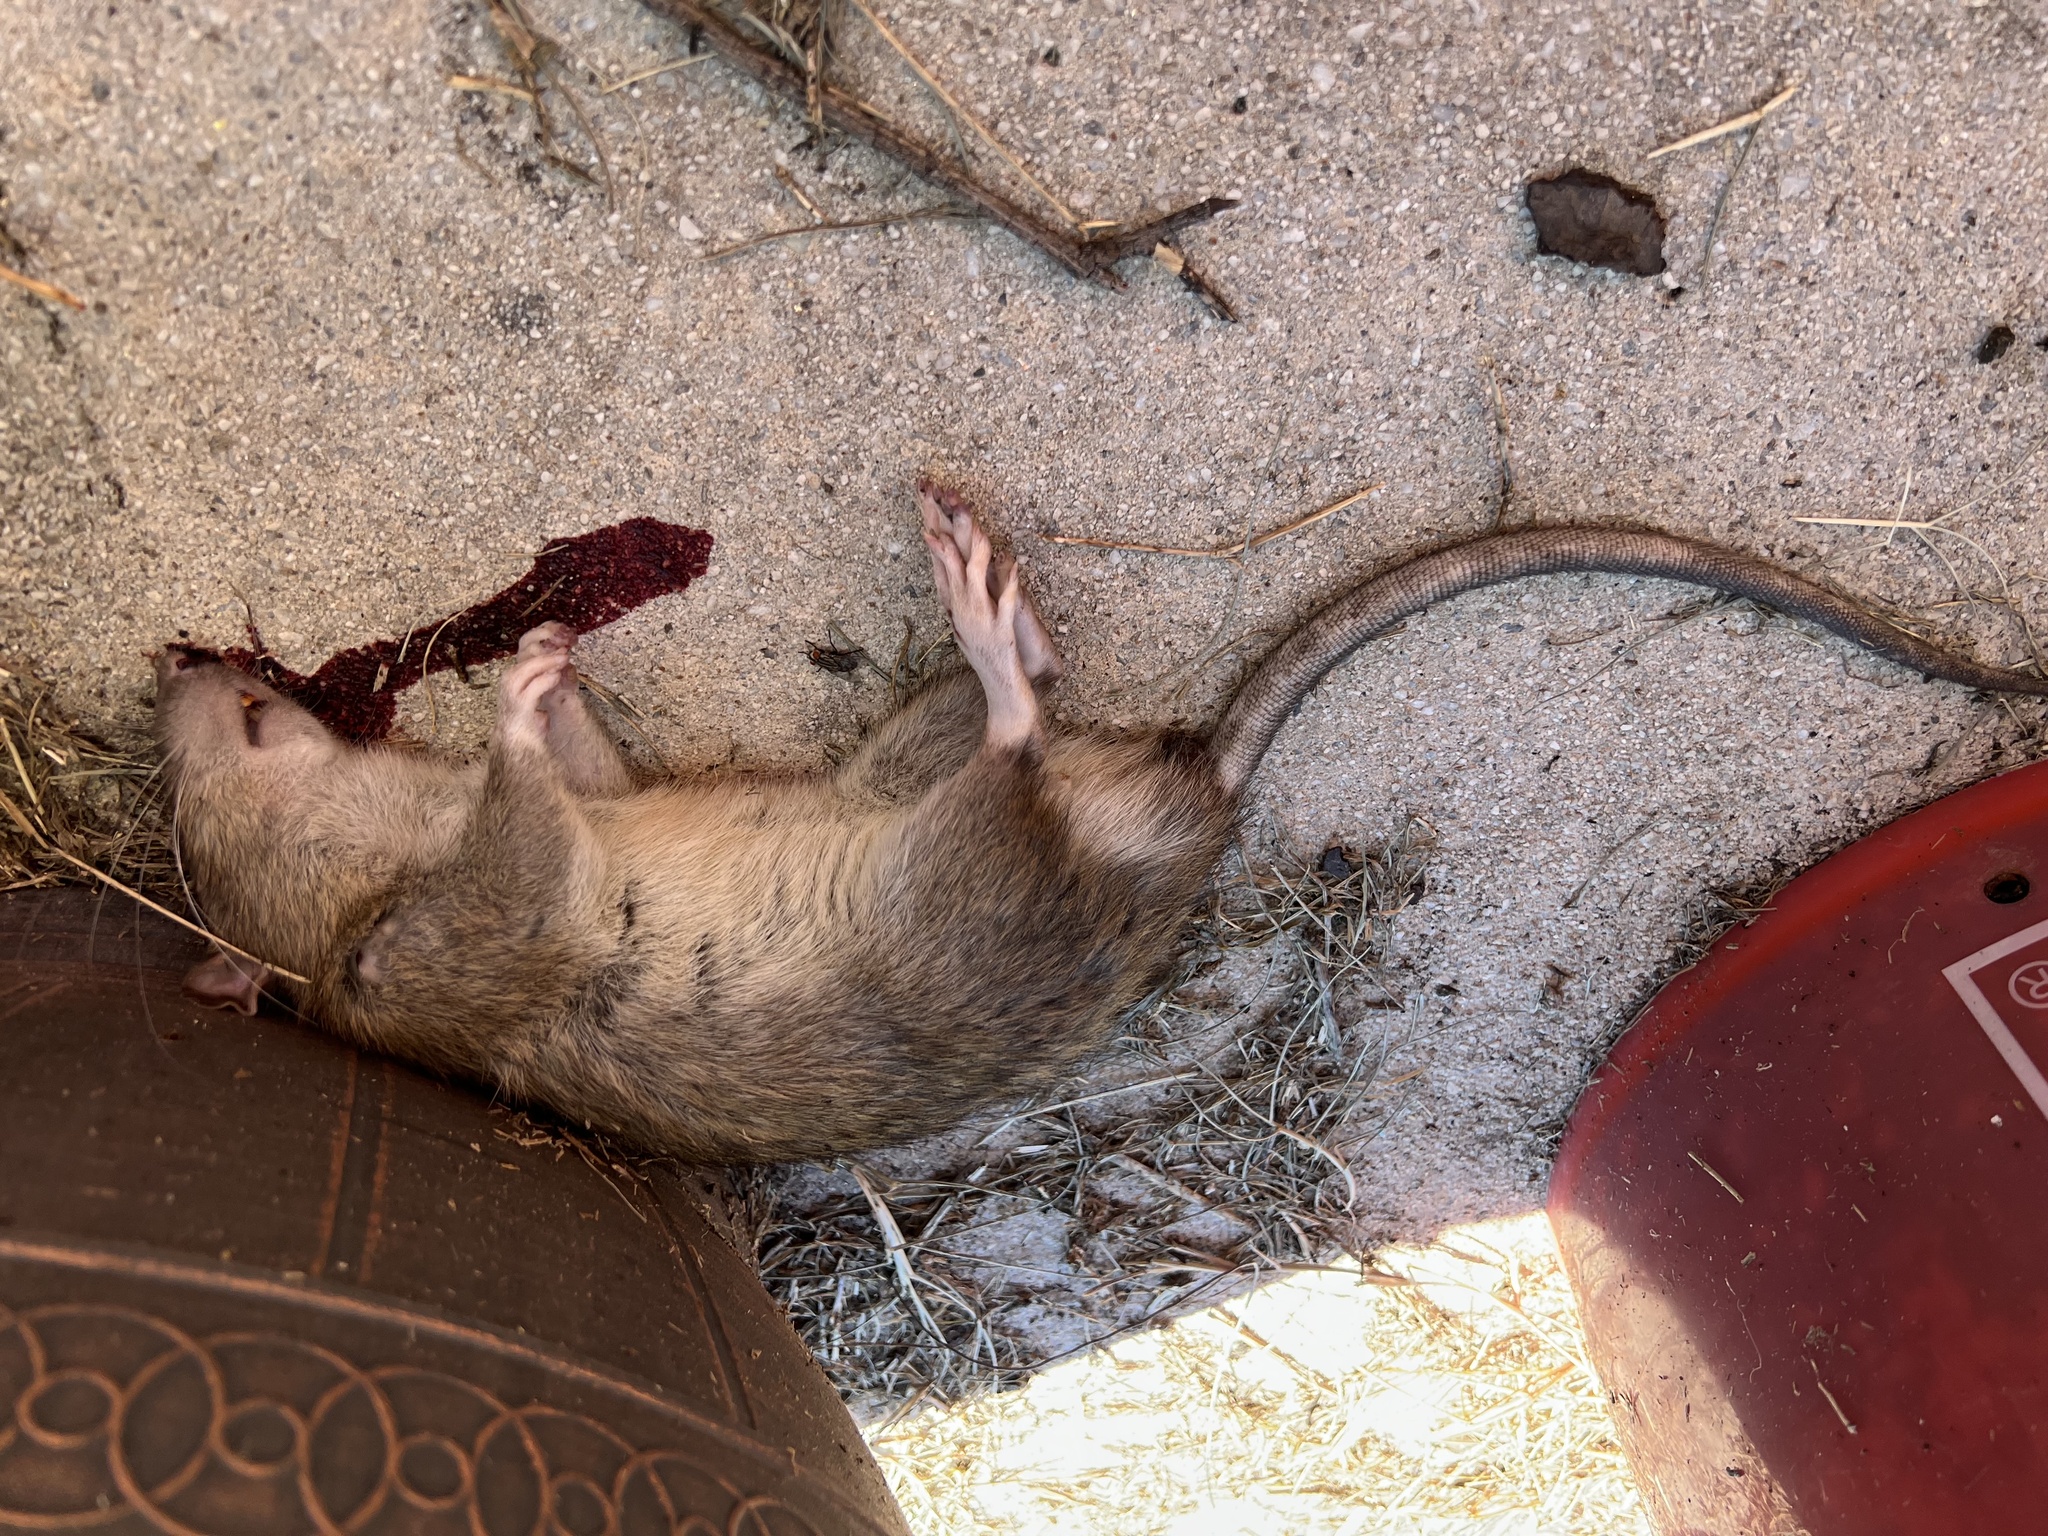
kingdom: Animalia
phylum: Chordata
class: Mammalia
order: Rodentia
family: Muridae
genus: Rattus
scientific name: Rattus norvegicus
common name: Brown rat
